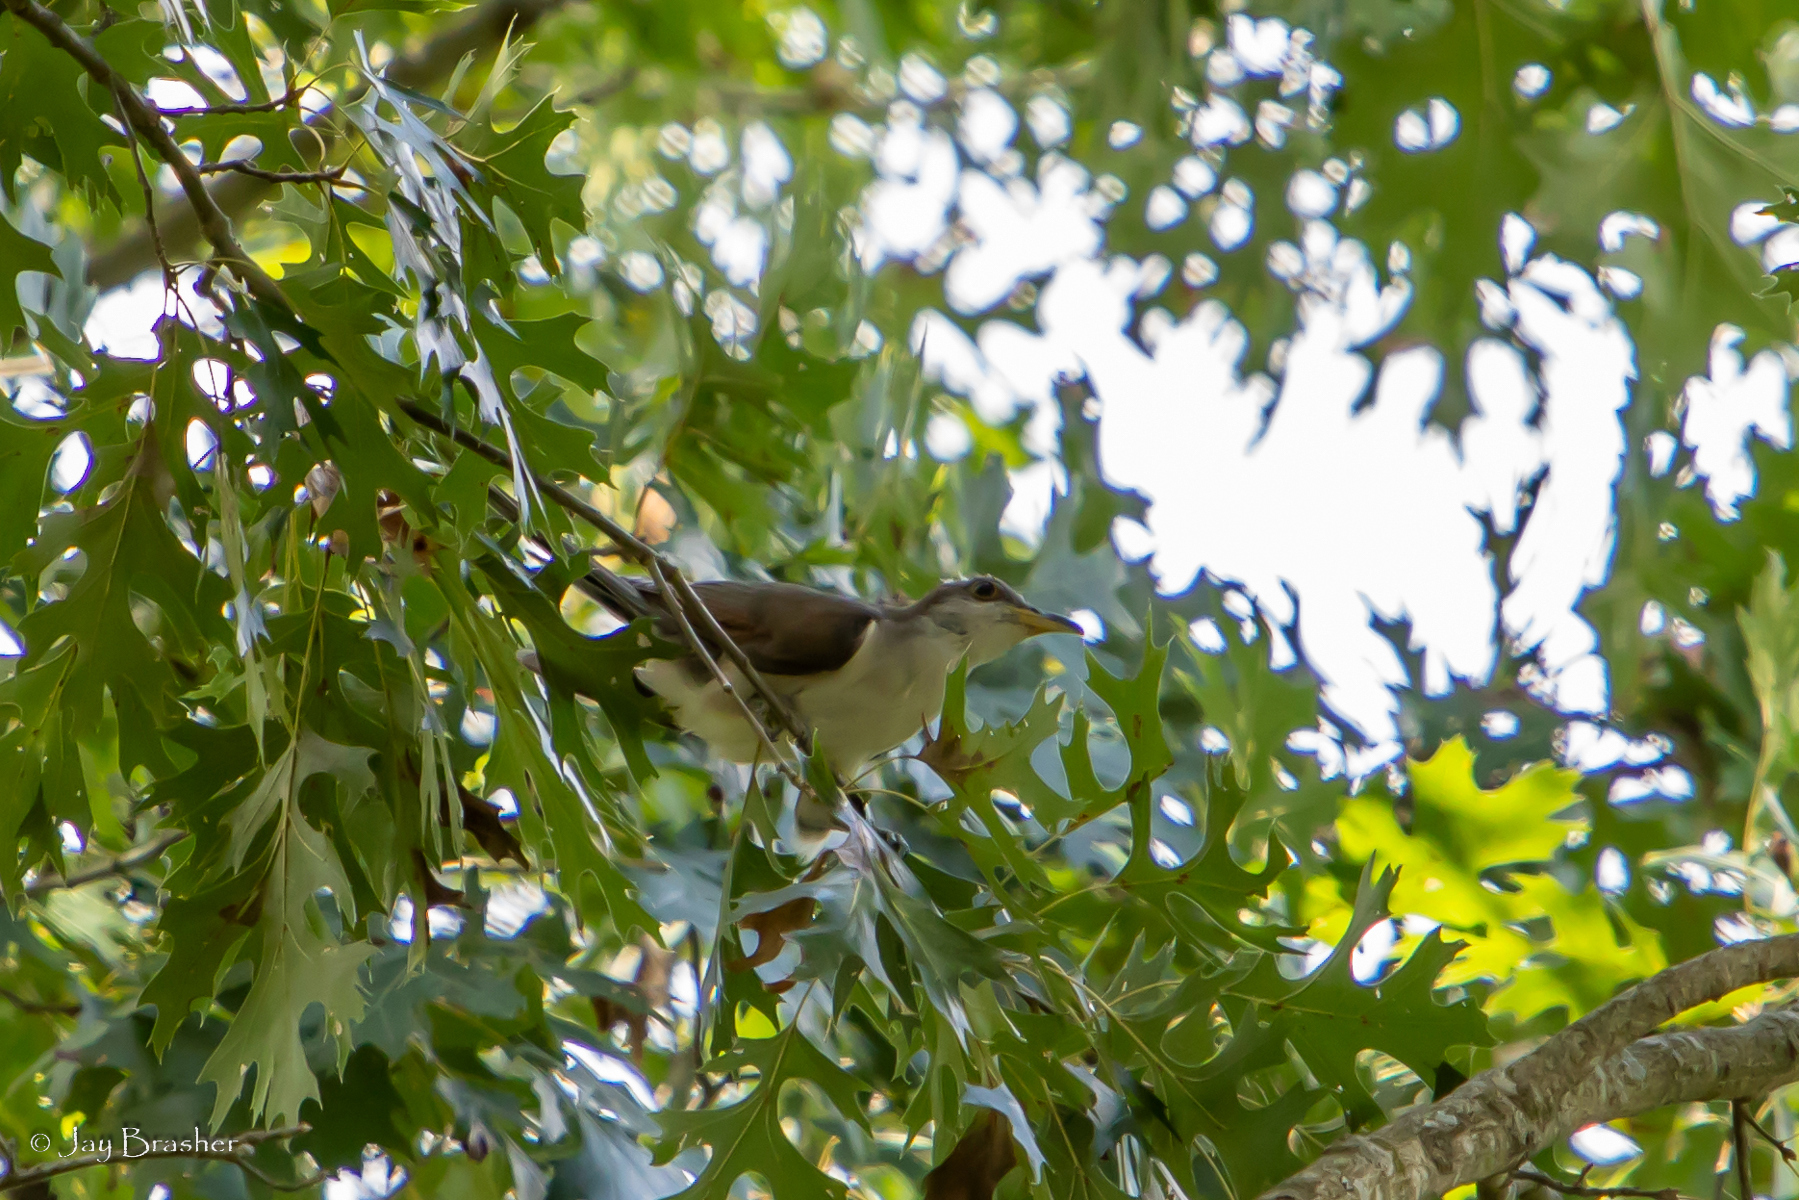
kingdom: Animalia
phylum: Chordata
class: Aves
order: Cuculiformes
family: Cuculidae
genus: Coccyzus
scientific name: Coccyzus americanus
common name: Yellow-billed cuckoo
